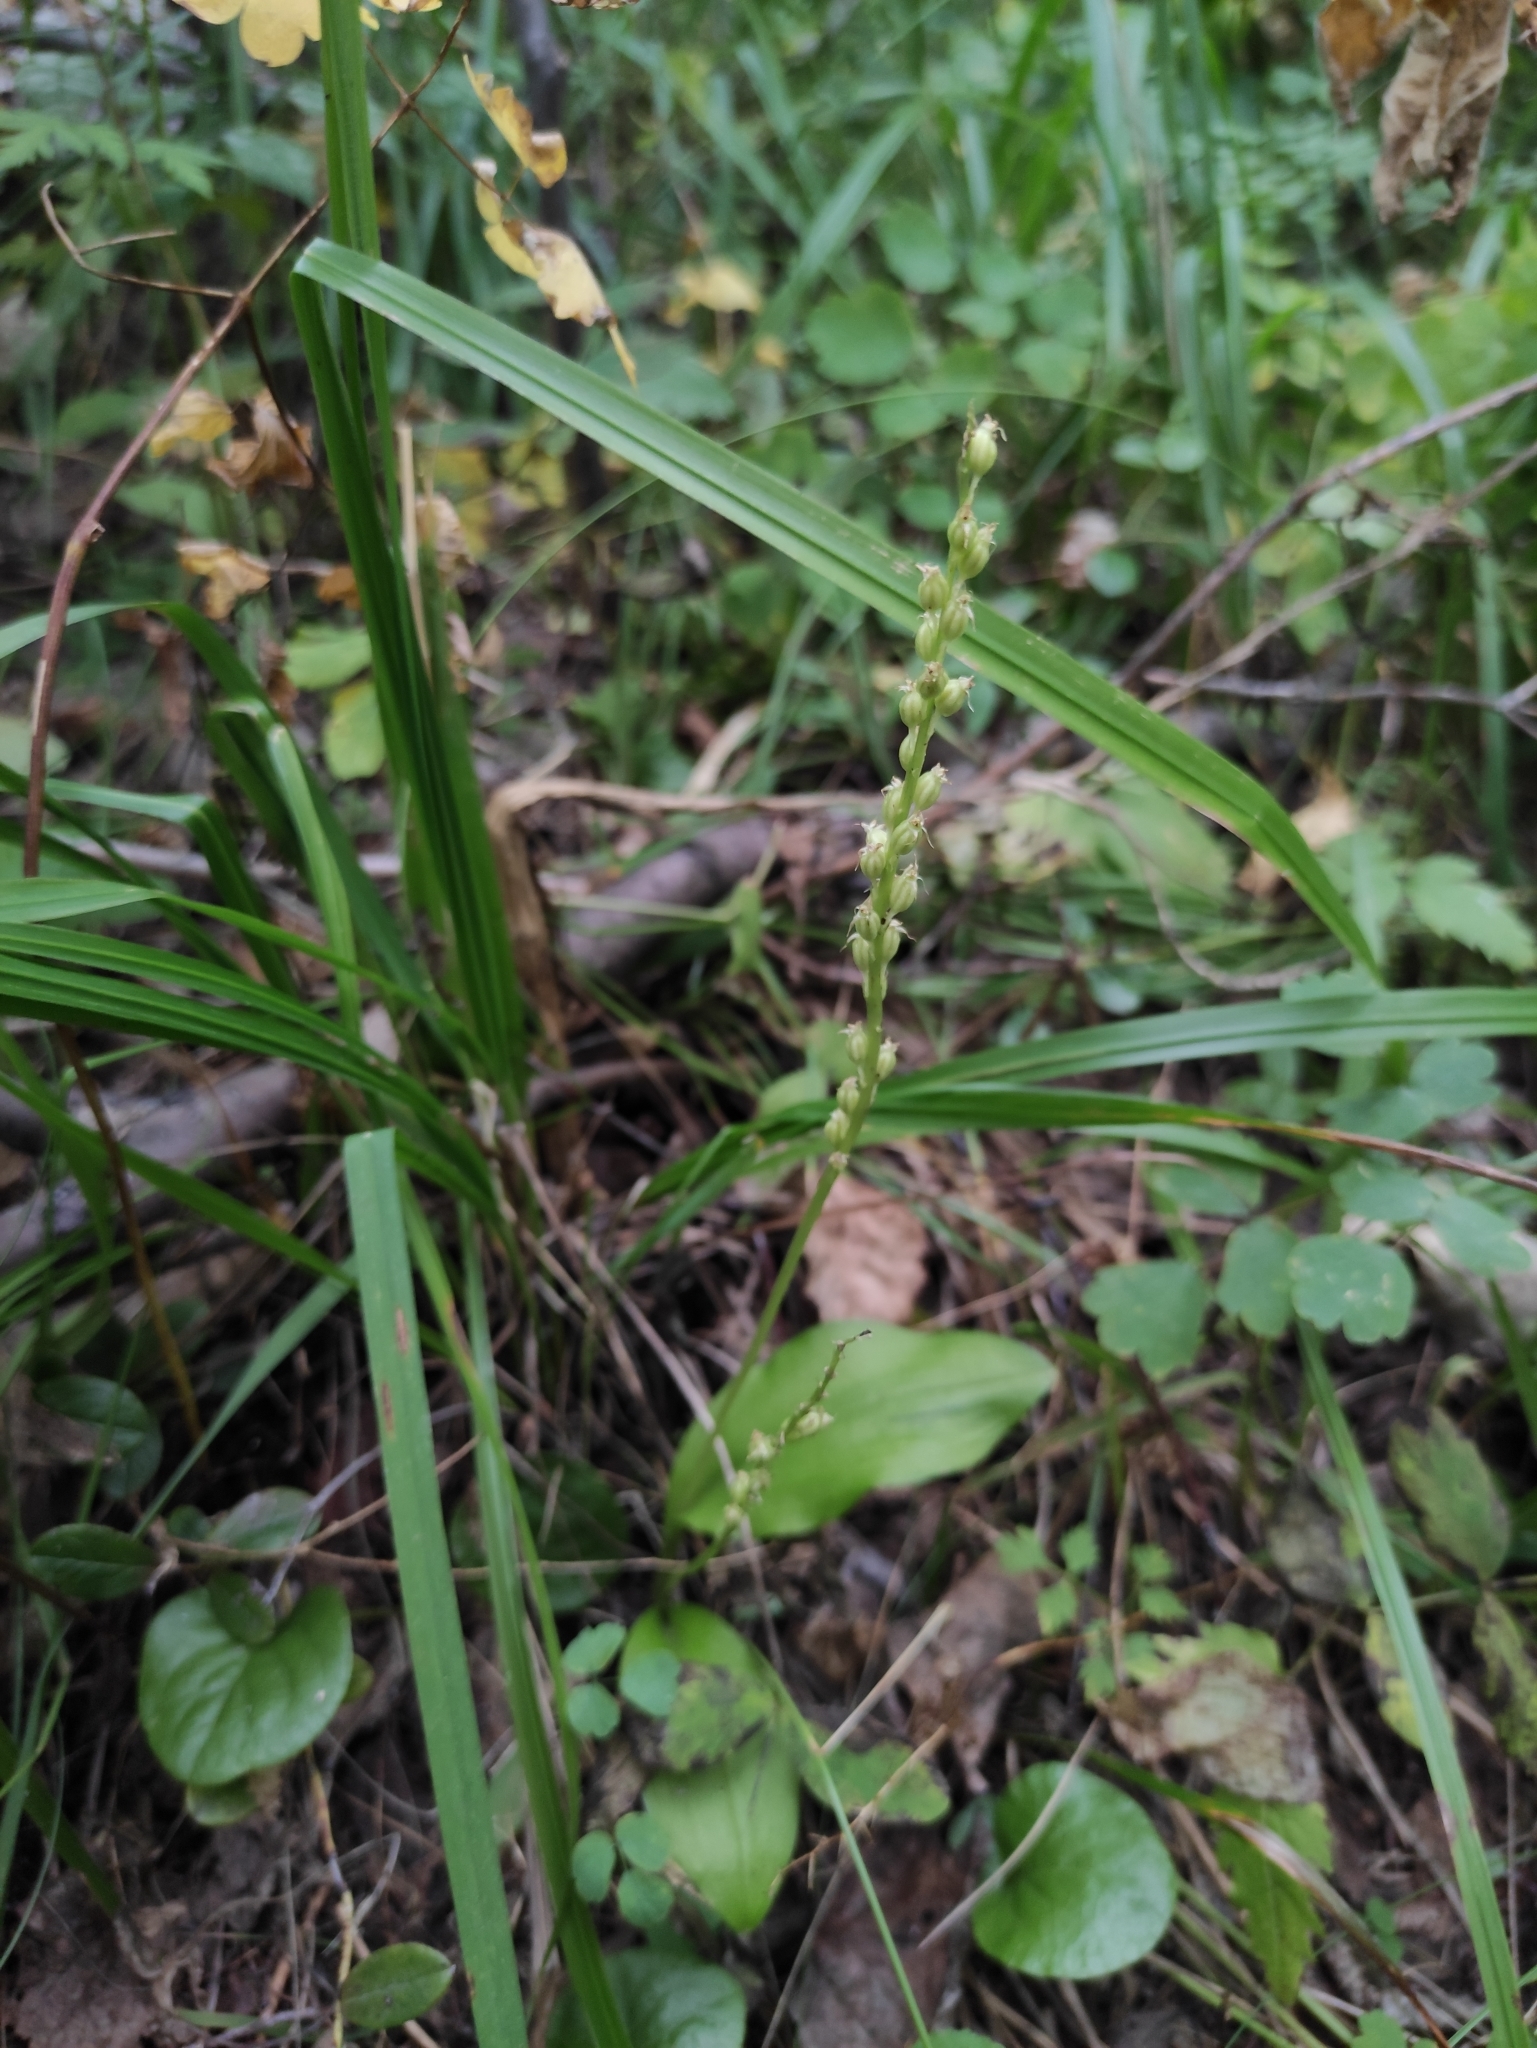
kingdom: Plantae
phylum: Tracheophyta
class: Liliopsida
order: Asparagales
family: Orchidaceae
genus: Malaxis
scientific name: Malaxis monophyllos
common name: White adder's-mouth
